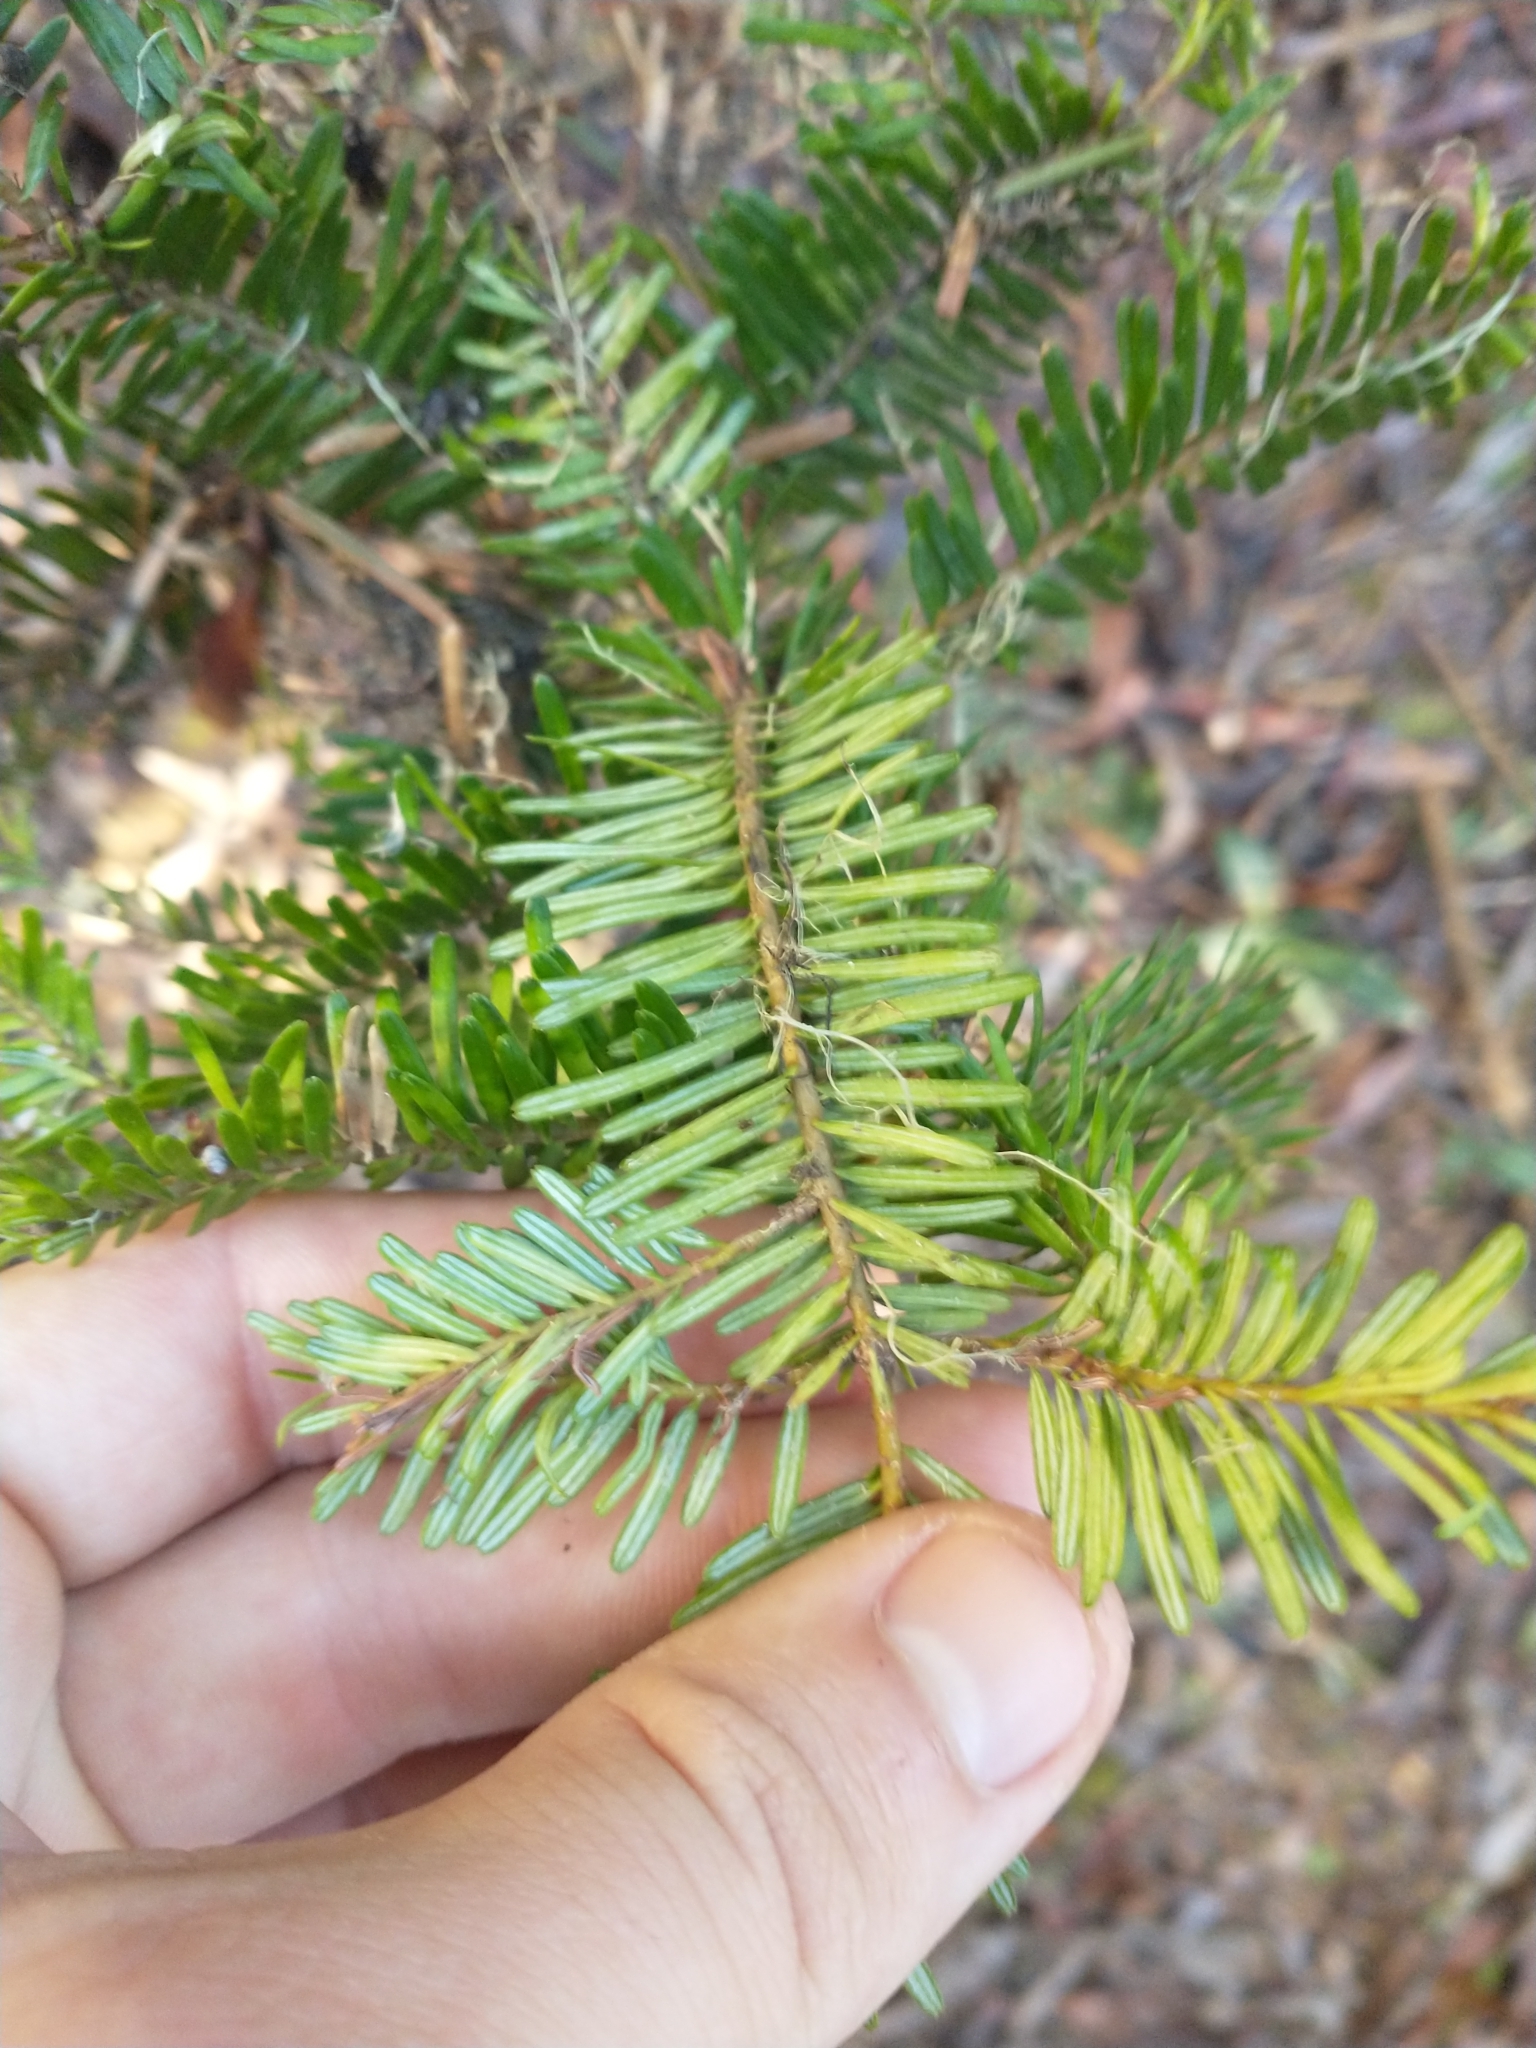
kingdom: Plantae
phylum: Tracheophyta
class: Pinopsida
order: Pinales
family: Pinaceae
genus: Abies
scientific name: Abies grandis
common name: Giant fir
